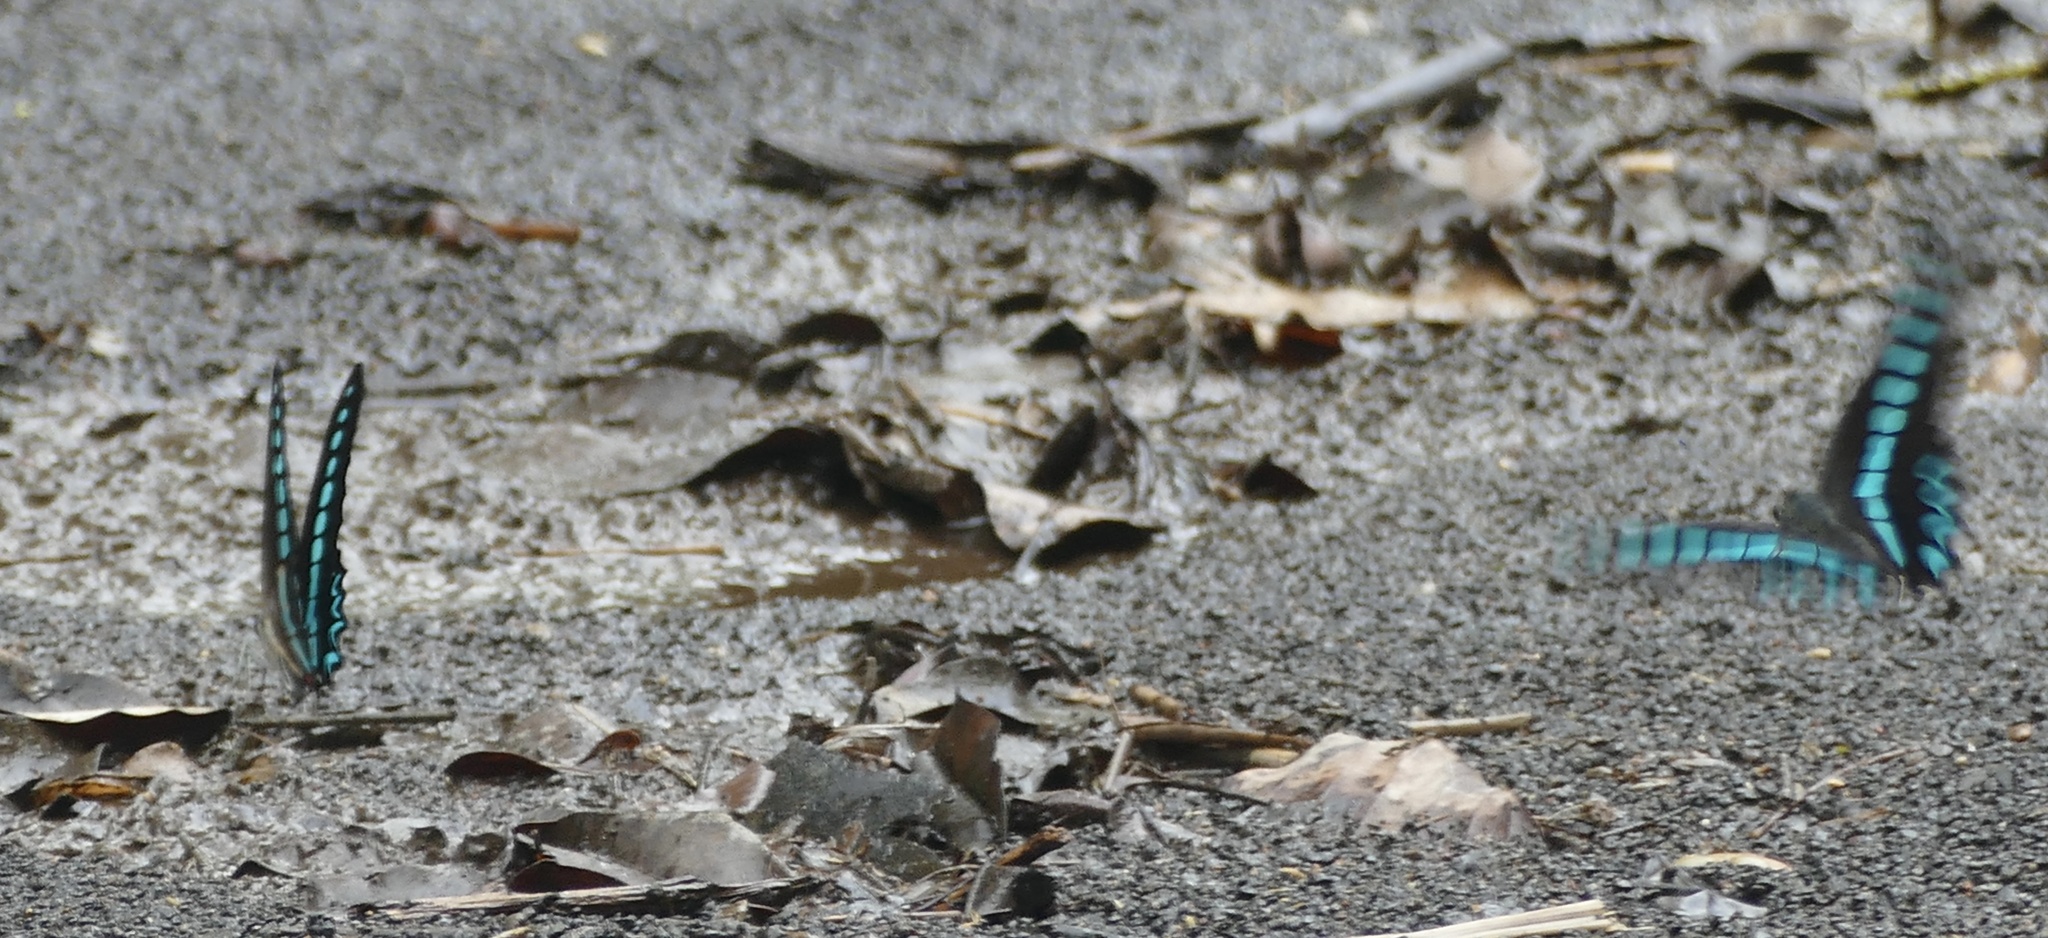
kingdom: Animalia
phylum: Arthropoda
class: Insecta
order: Lepidoptera
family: Papilionidae
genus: Graphium
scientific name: Graphium milon
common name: Milon's swallowtail
